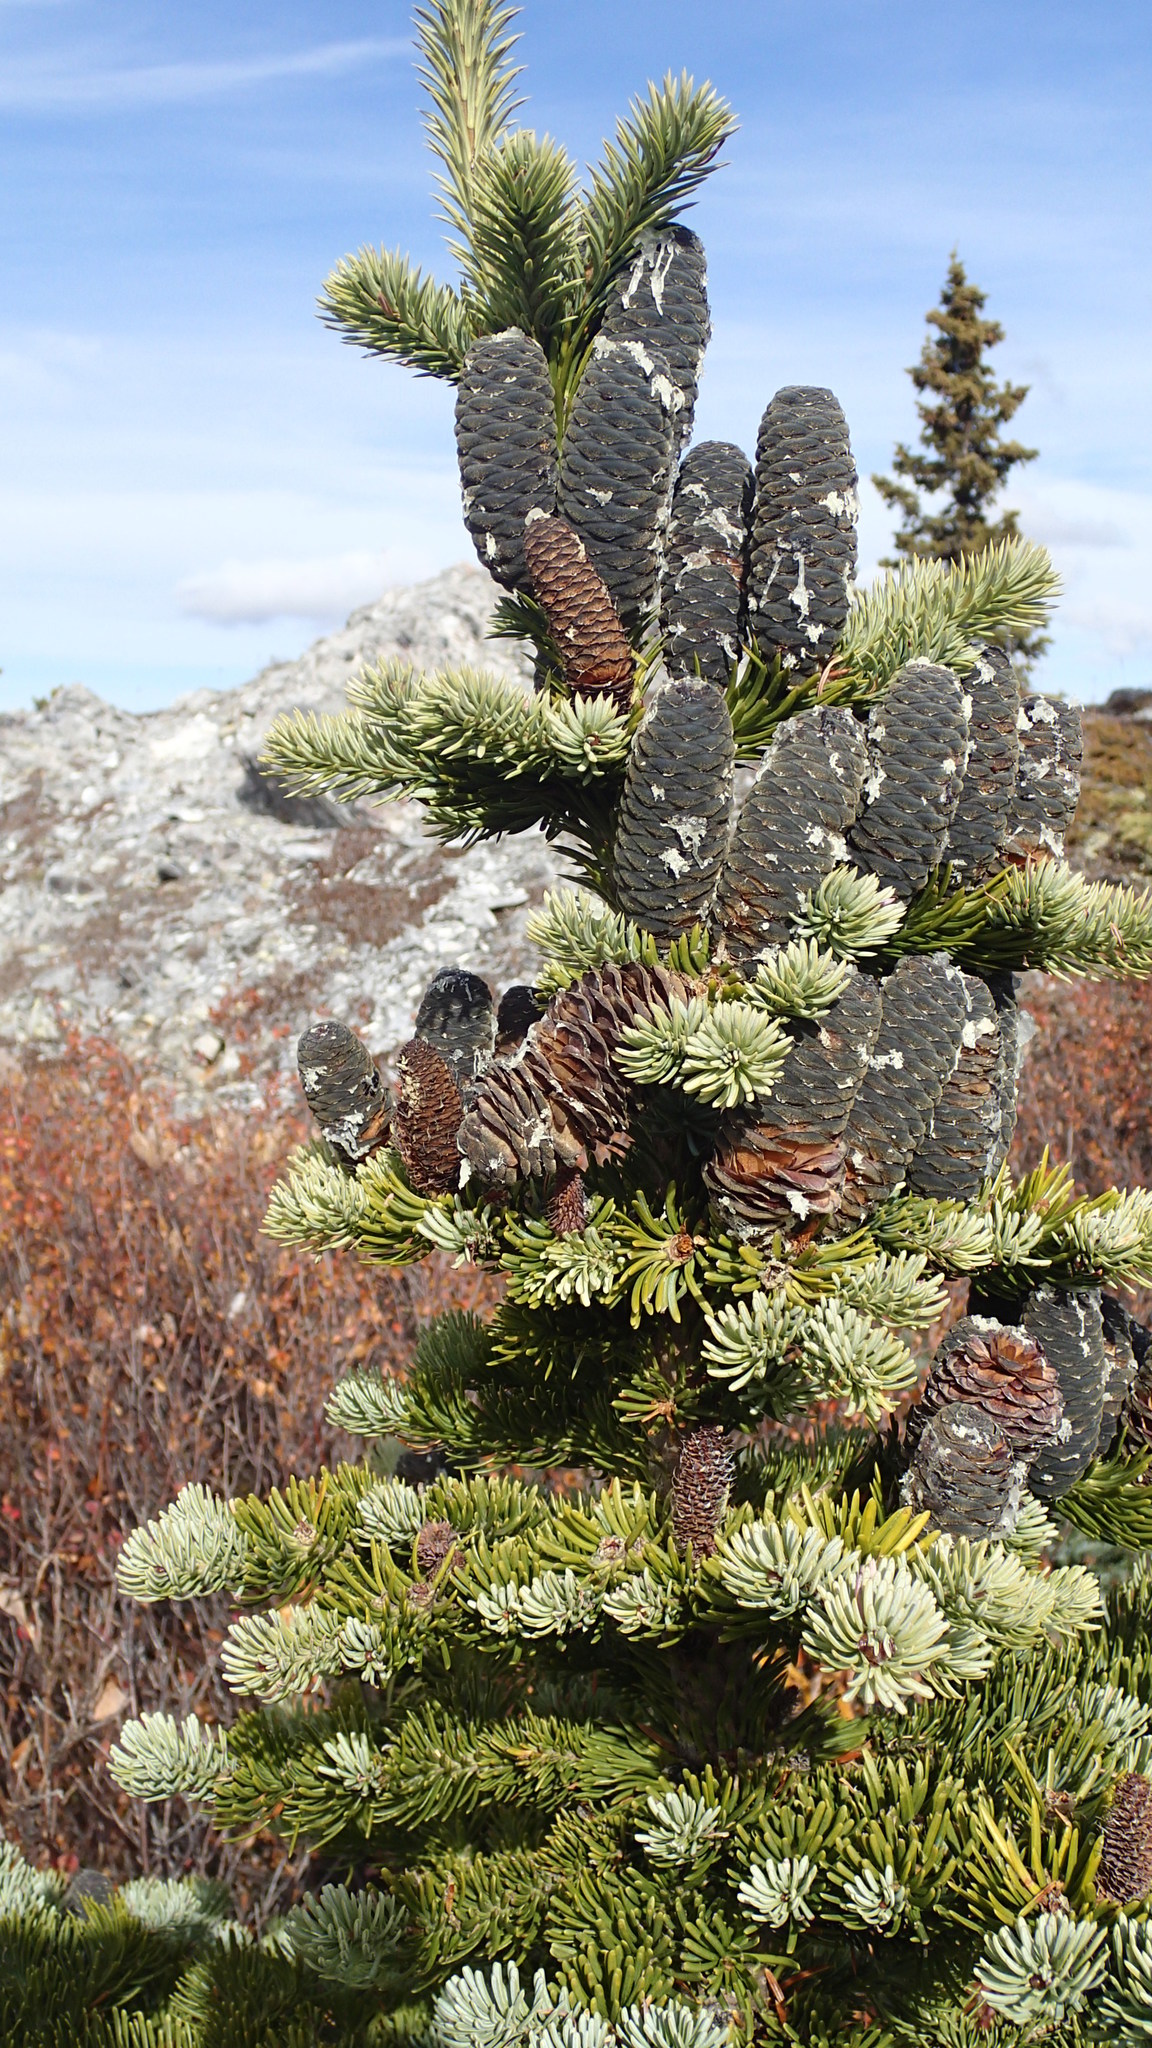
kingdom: Plantae
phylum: Tracheophyta
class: Pinopsida
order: Pinales
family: Pinaceae
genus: Abies
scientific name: Abies lasiocarpa
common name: Subalpine fir
